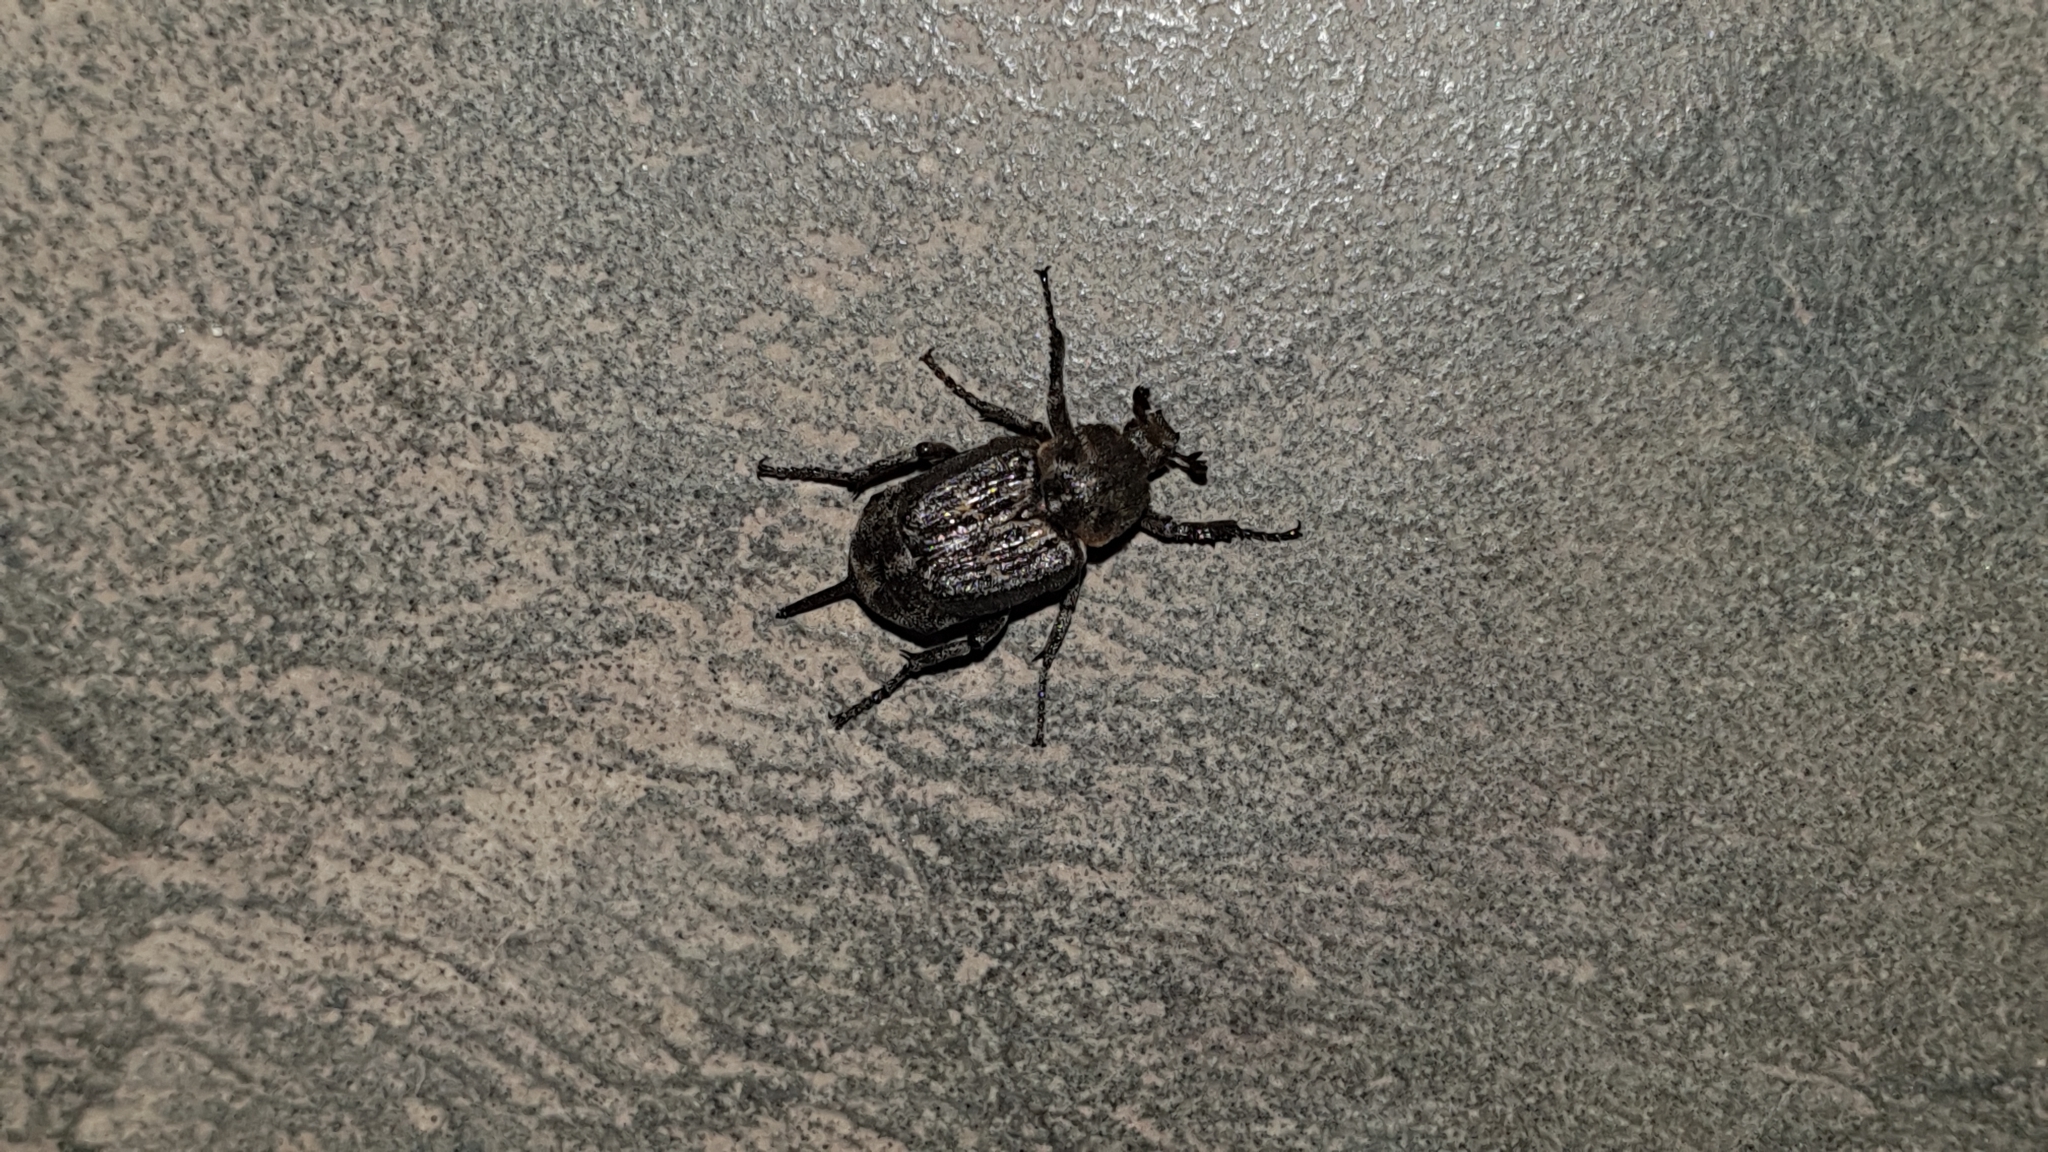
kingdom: Animalia
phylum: Arthropoda
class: Insecta
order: Coleoptera
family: Scarabaeidae
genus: Valgus
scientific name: Valgus hemipterus
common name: Bug flower chafer
